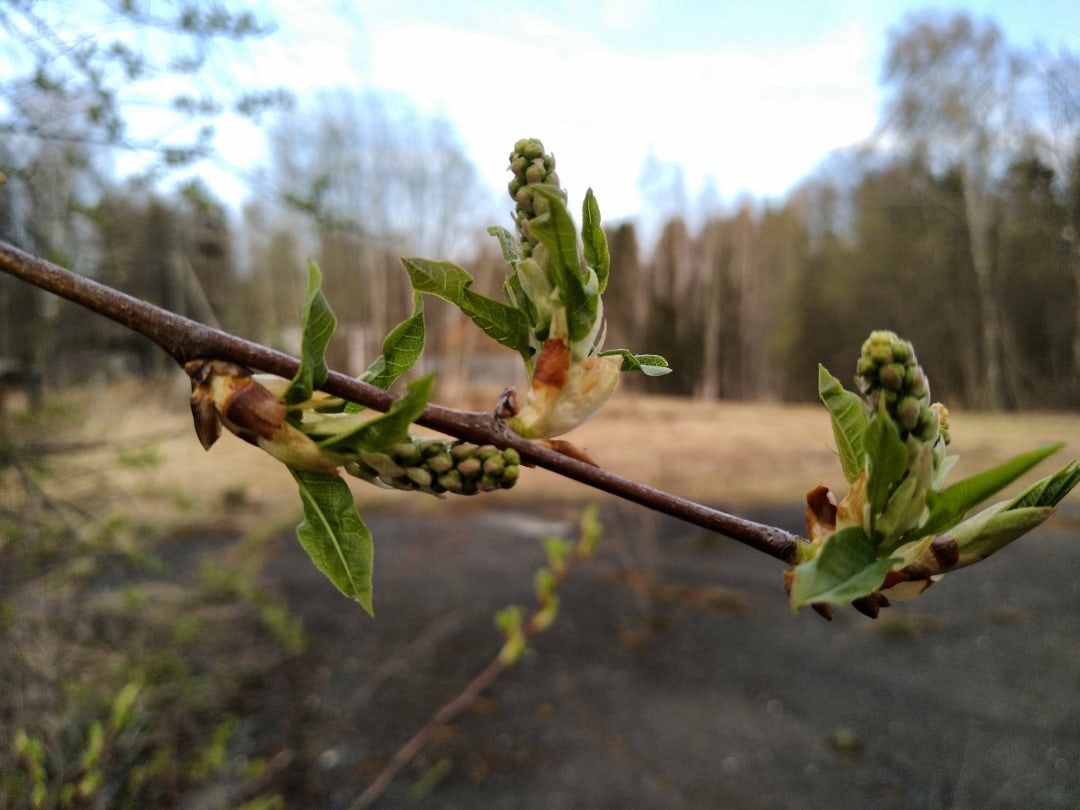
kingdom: Plantae
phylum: Tracheophyta
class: Magnoliopsida
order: Rosales
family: Rosaceae
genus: Prunus
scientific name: Prunus padus
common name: Bird cherry
